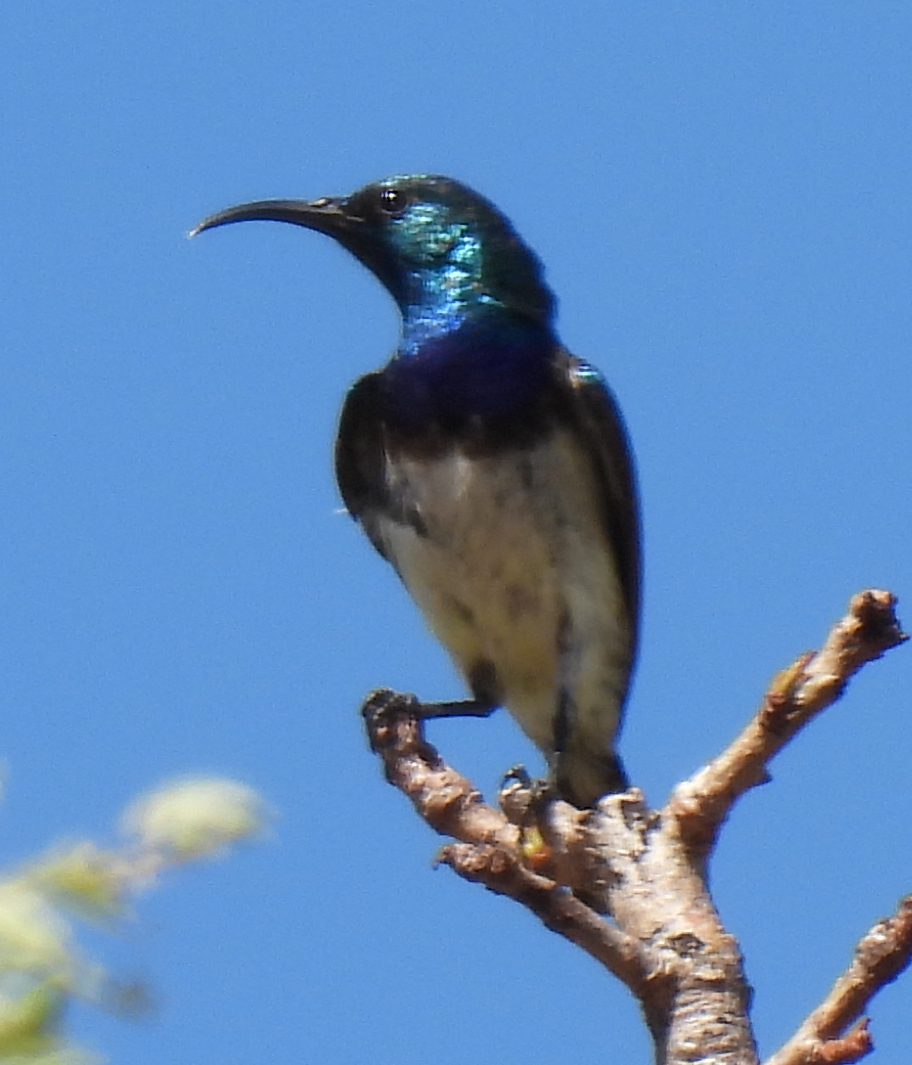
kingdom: Animalia
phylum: Chordata
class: Aves
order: Passeriformes
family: Nectariniidae
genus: Cinnyris
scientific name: Cinnyris talatala
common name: White-bellied sunbird
